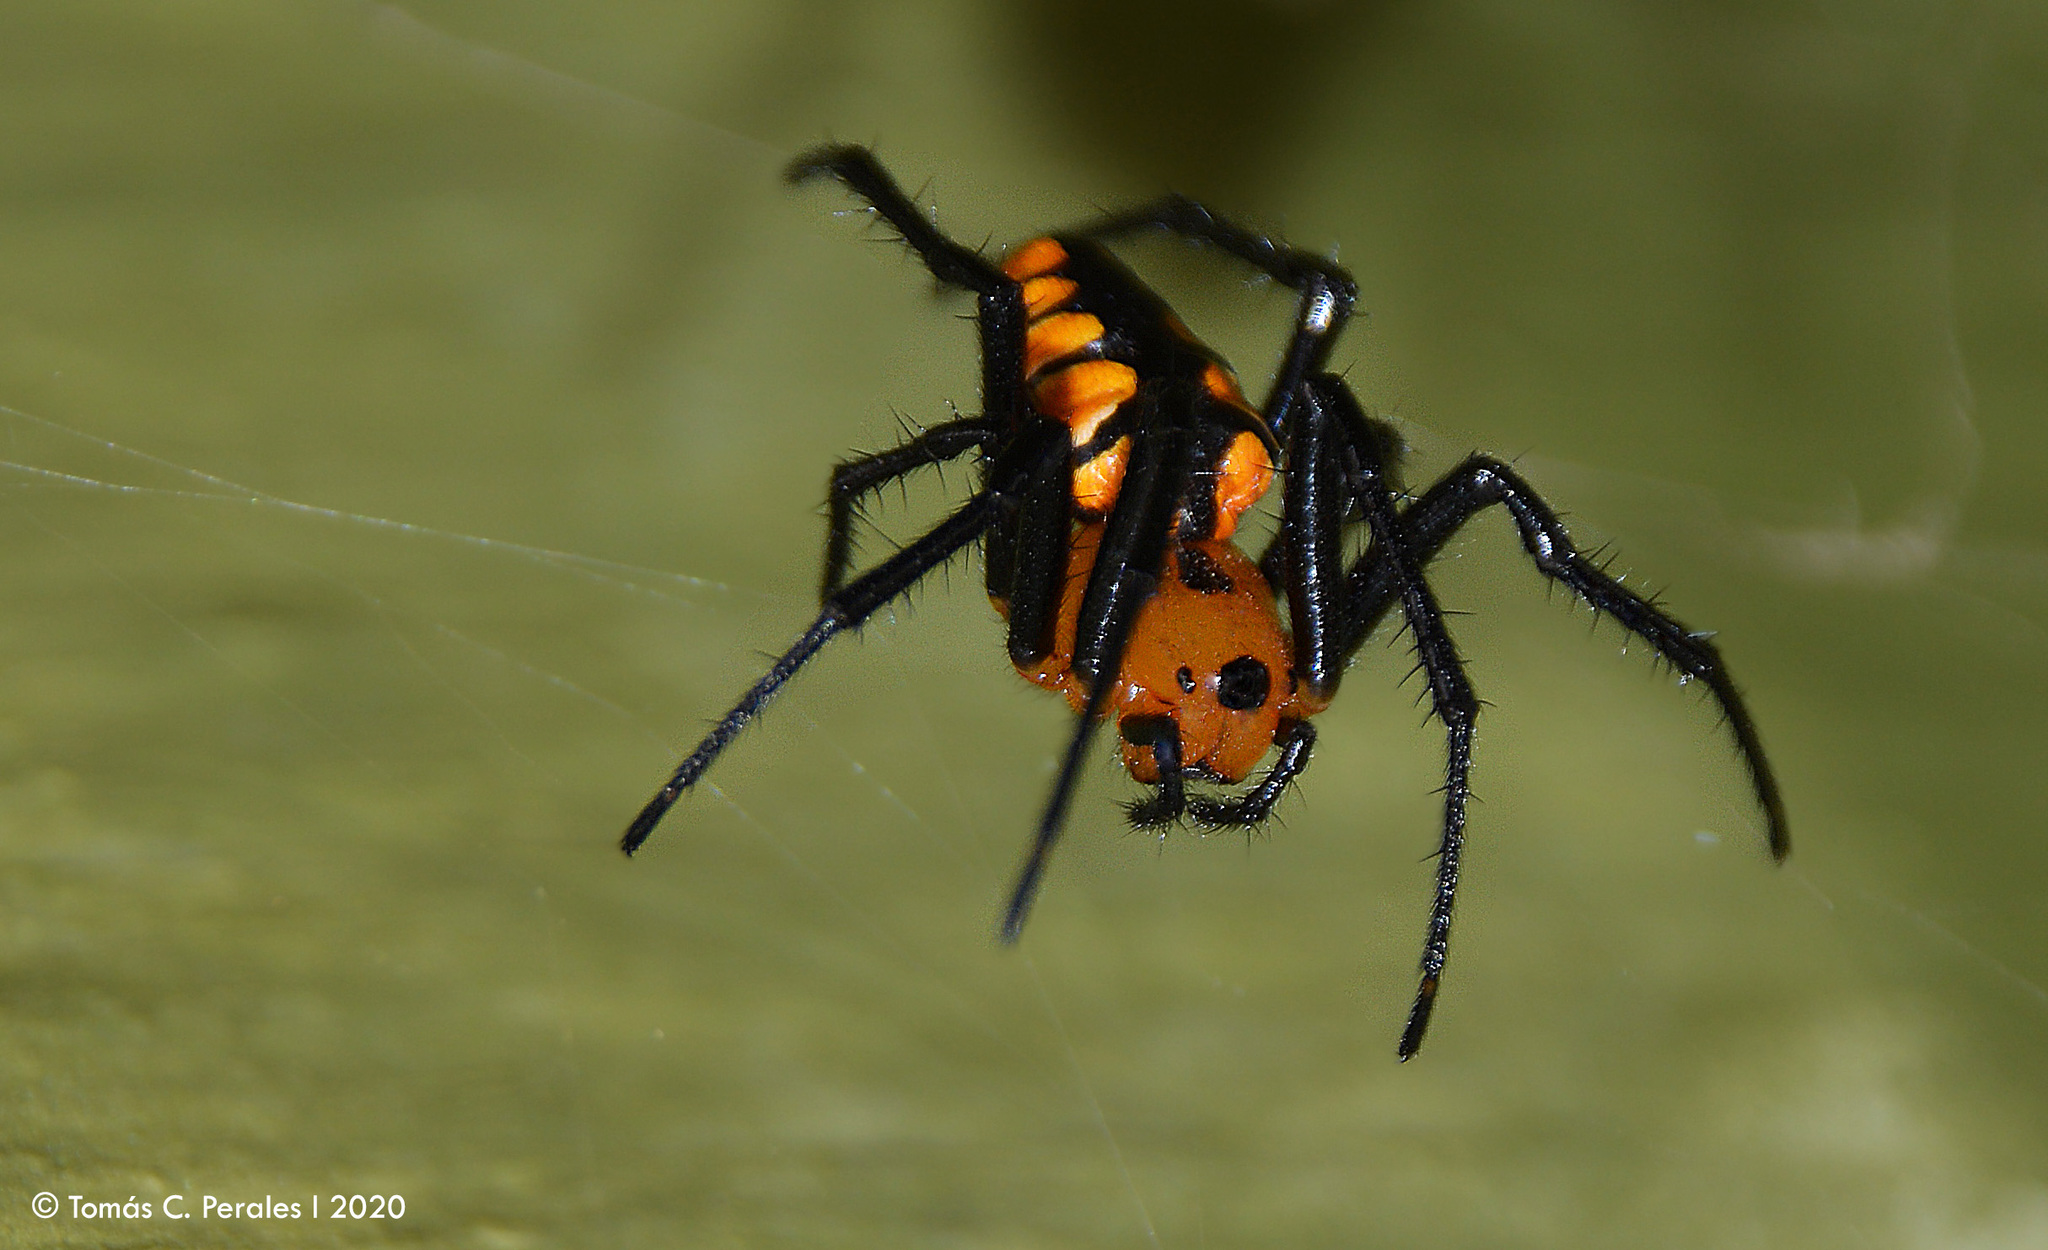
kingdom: Animalia
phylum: Arthropoda
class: Arachnida
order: Araneae
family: Araneidae
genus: Alpaida
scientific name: Alpaida latro
